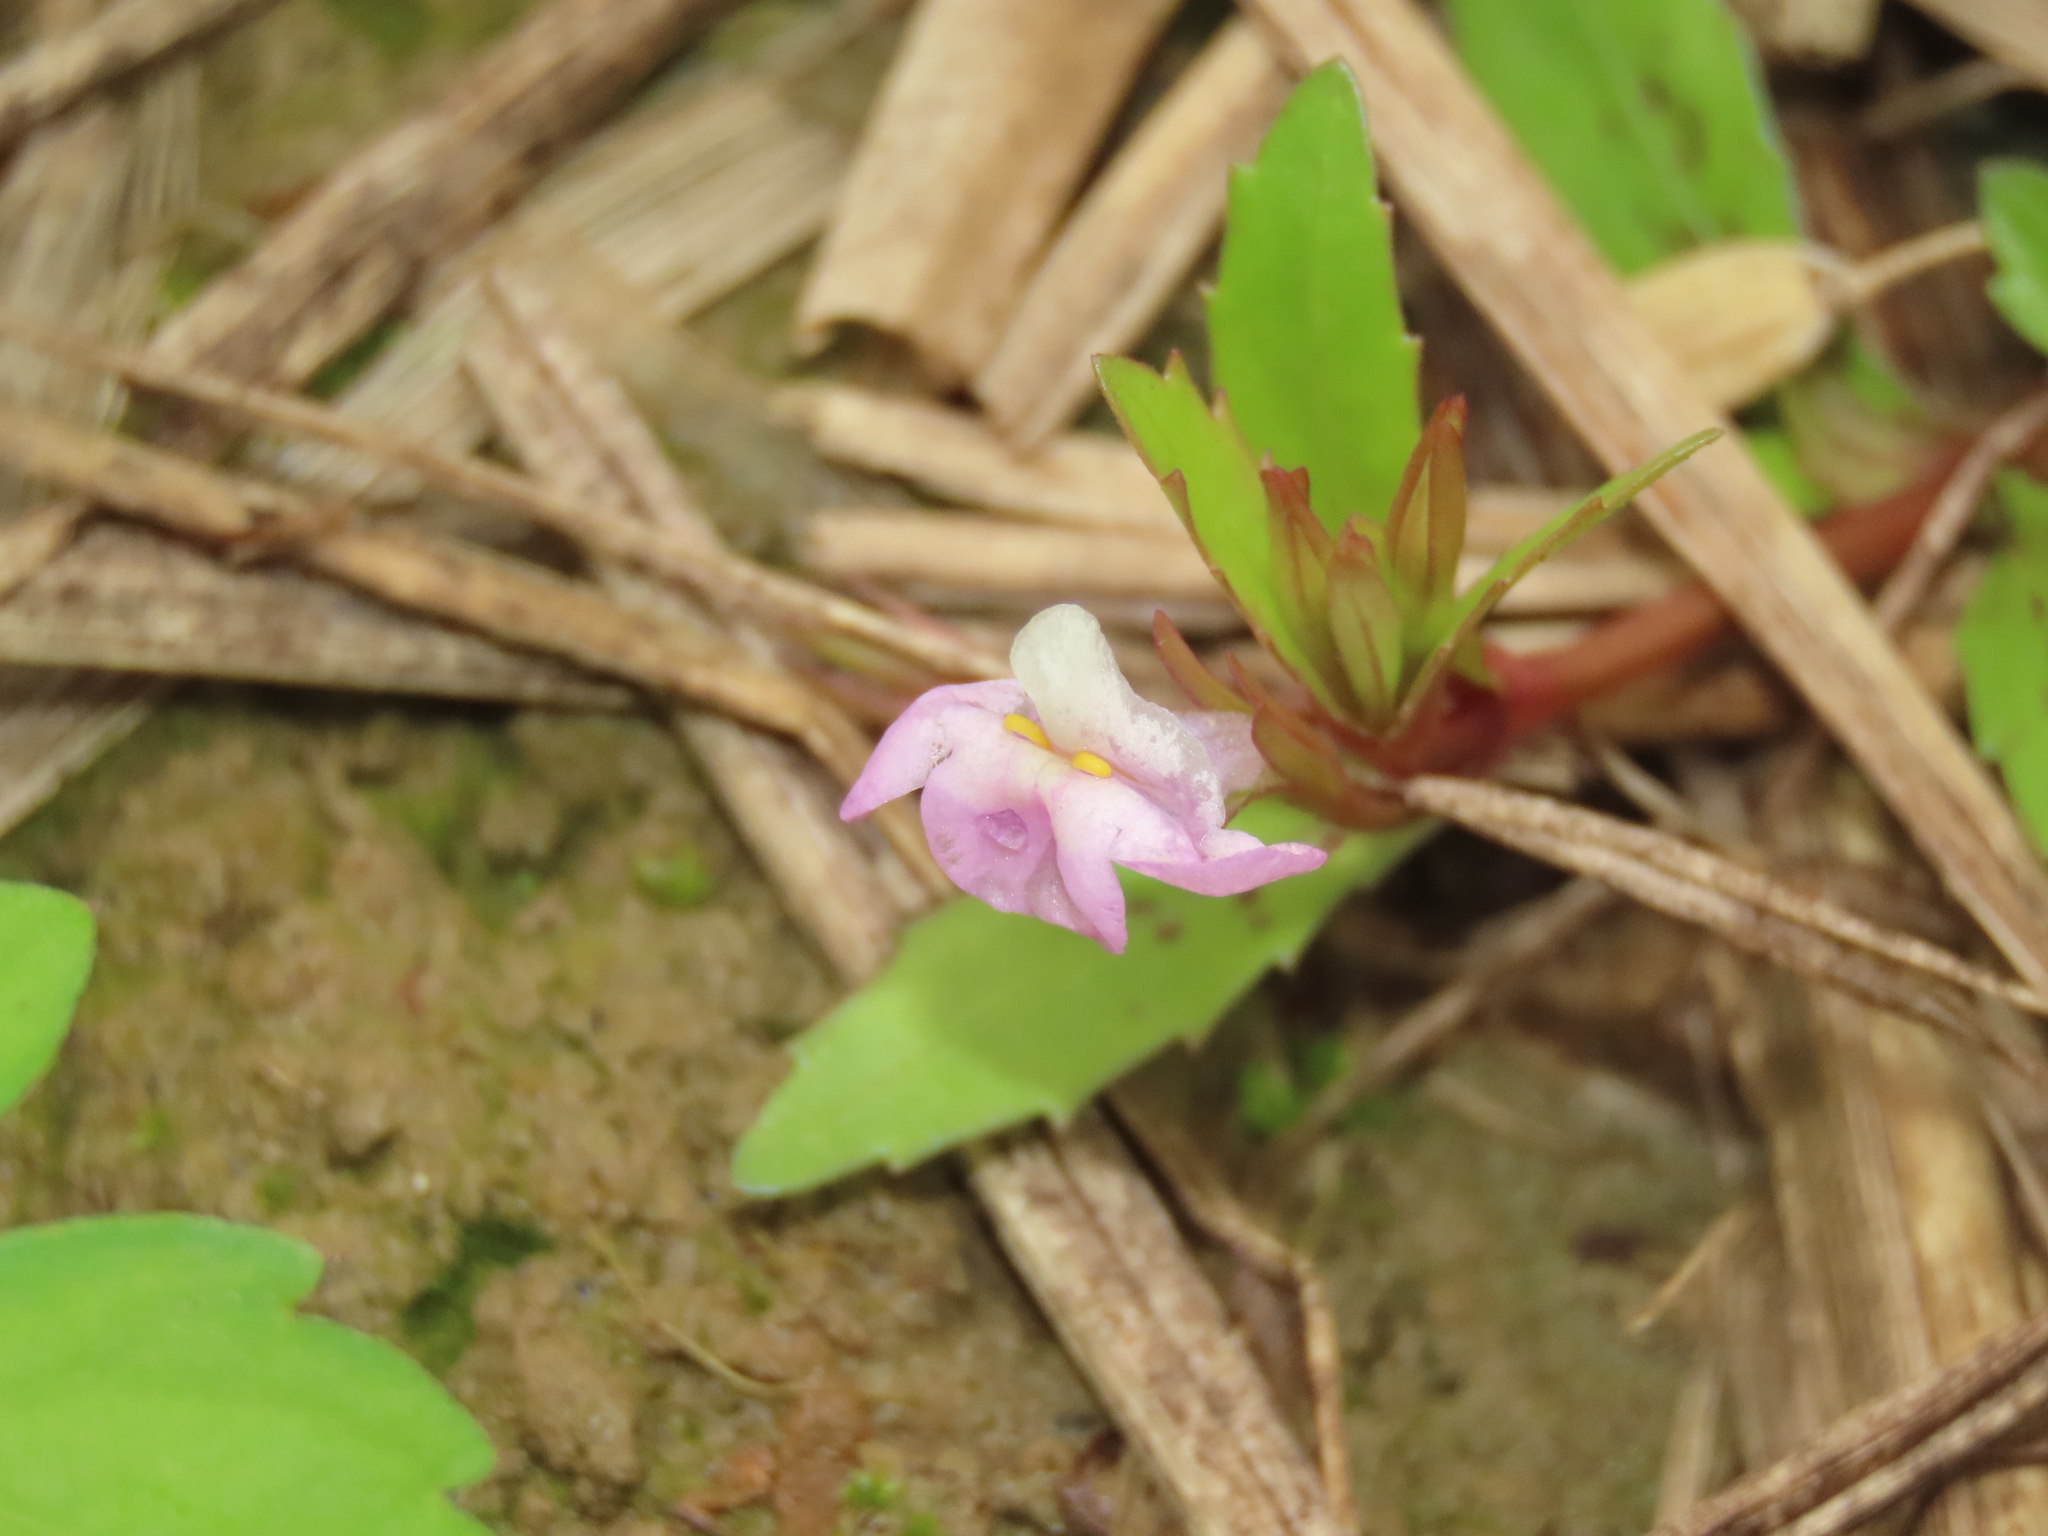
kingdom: Plantae
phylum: Tracheophyta
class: Magnoliopsida
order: Lamiales
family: Linderniaceae
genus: Bonnaya
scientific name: Bonnaya antipoda
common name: Sparrow false pimpernel
